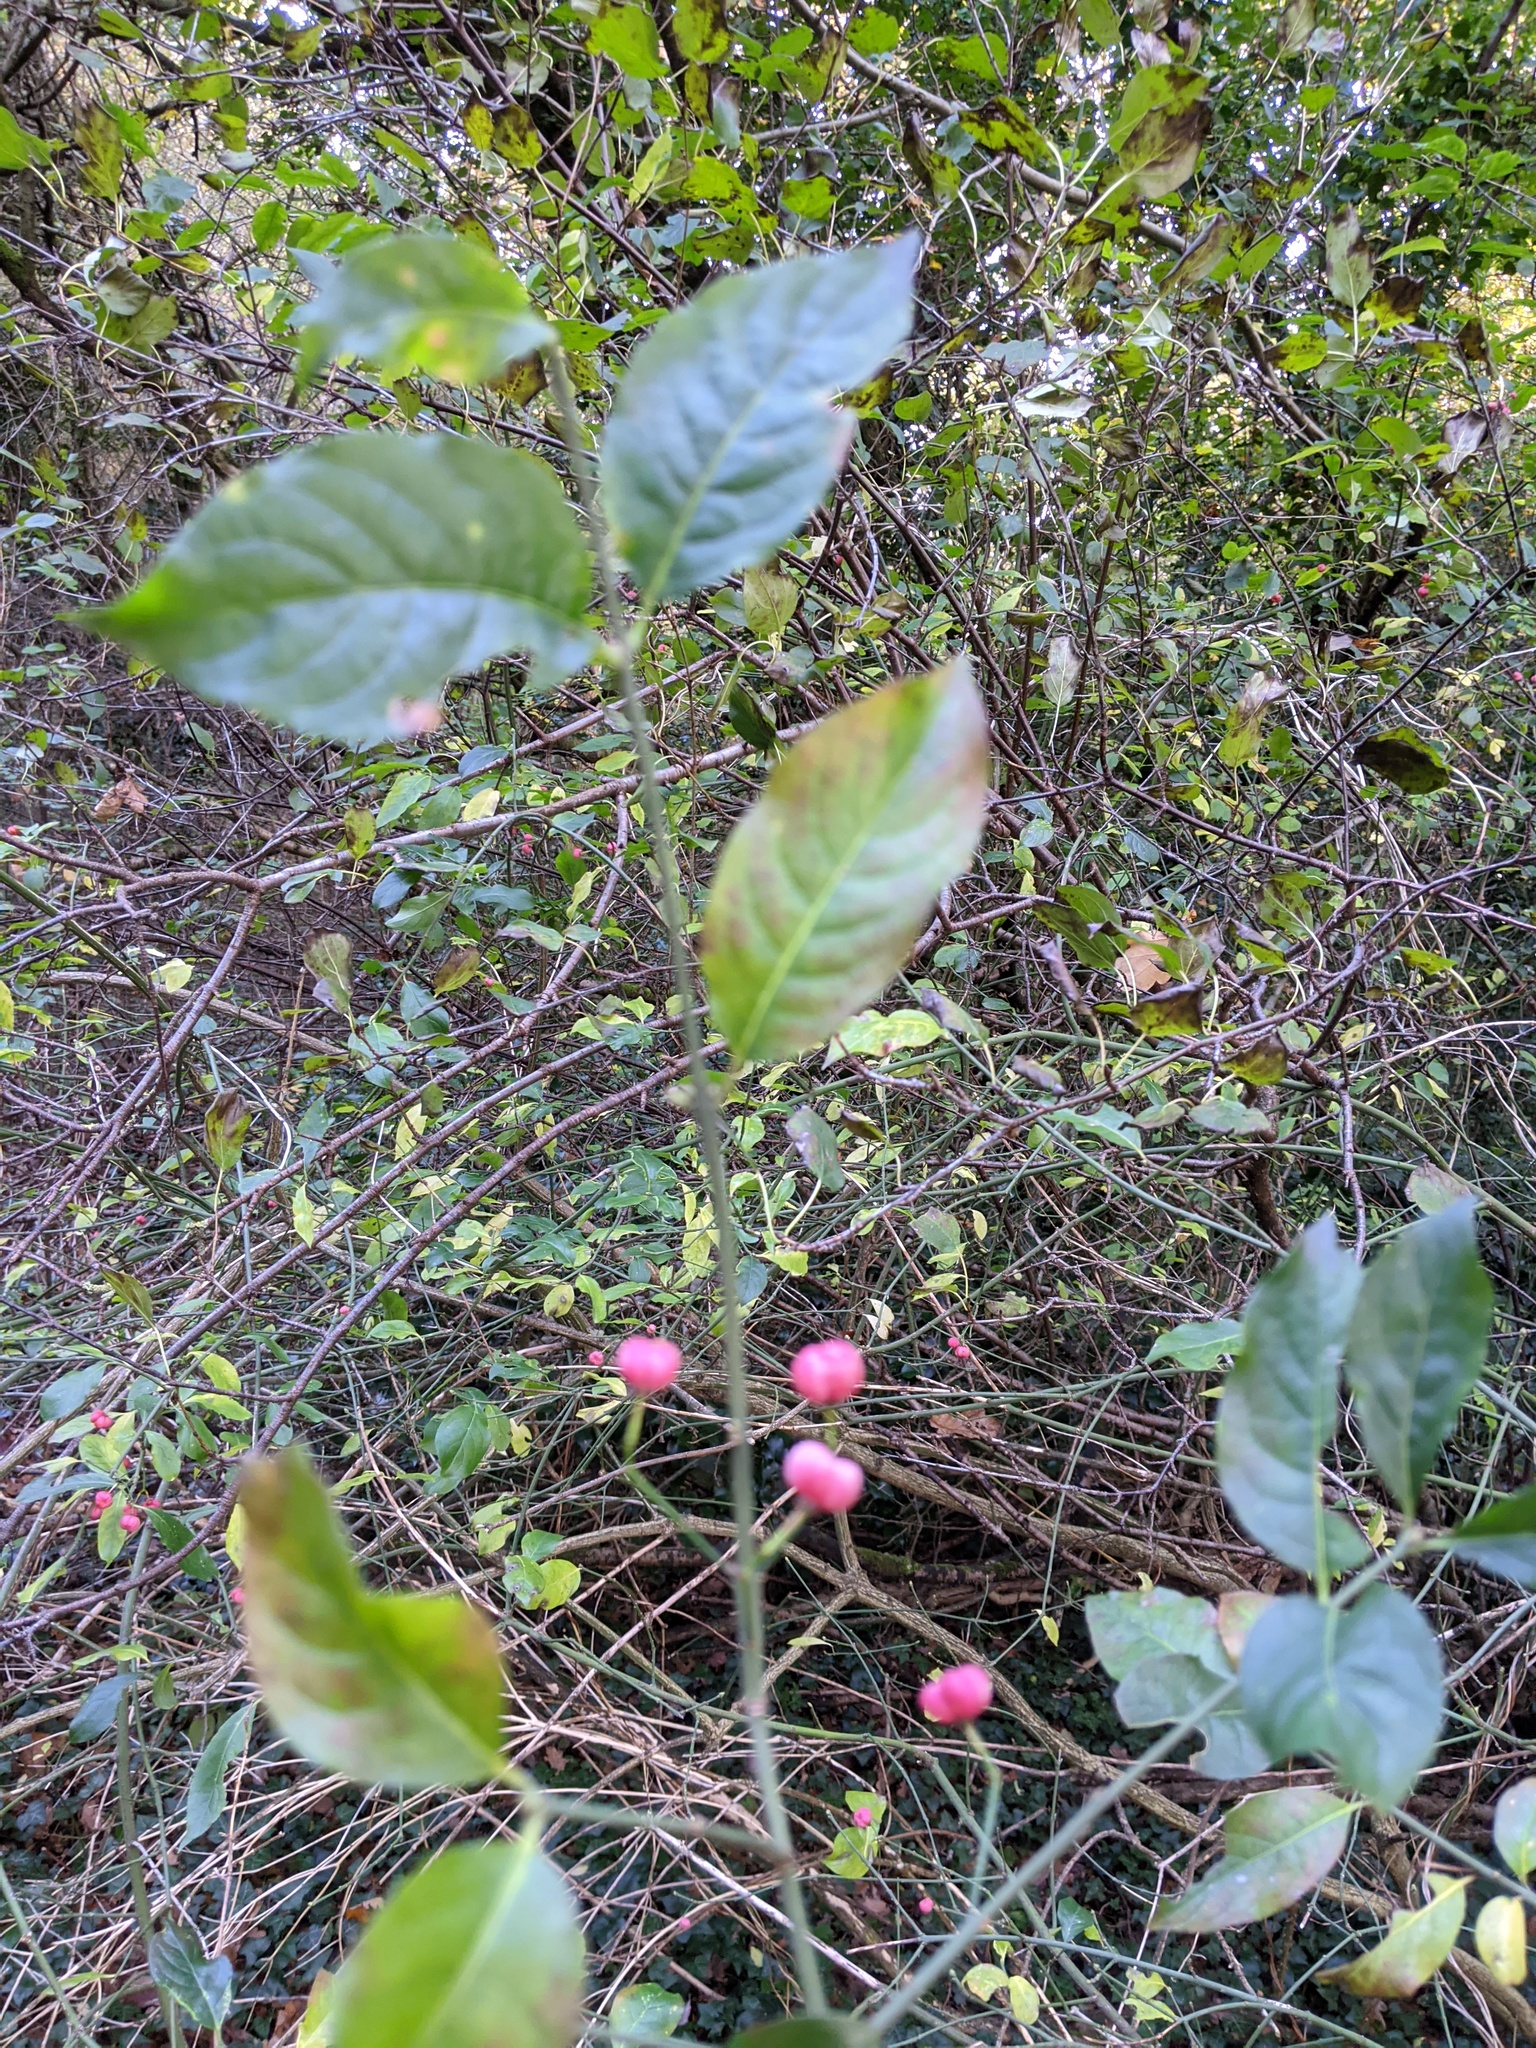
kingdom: Plantae
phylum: Tracheophyta
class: Magnoliopsida
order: Celastrales
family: Celastraceae
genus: Euonymus
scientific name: Euonymus europaeus
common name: Spindle
